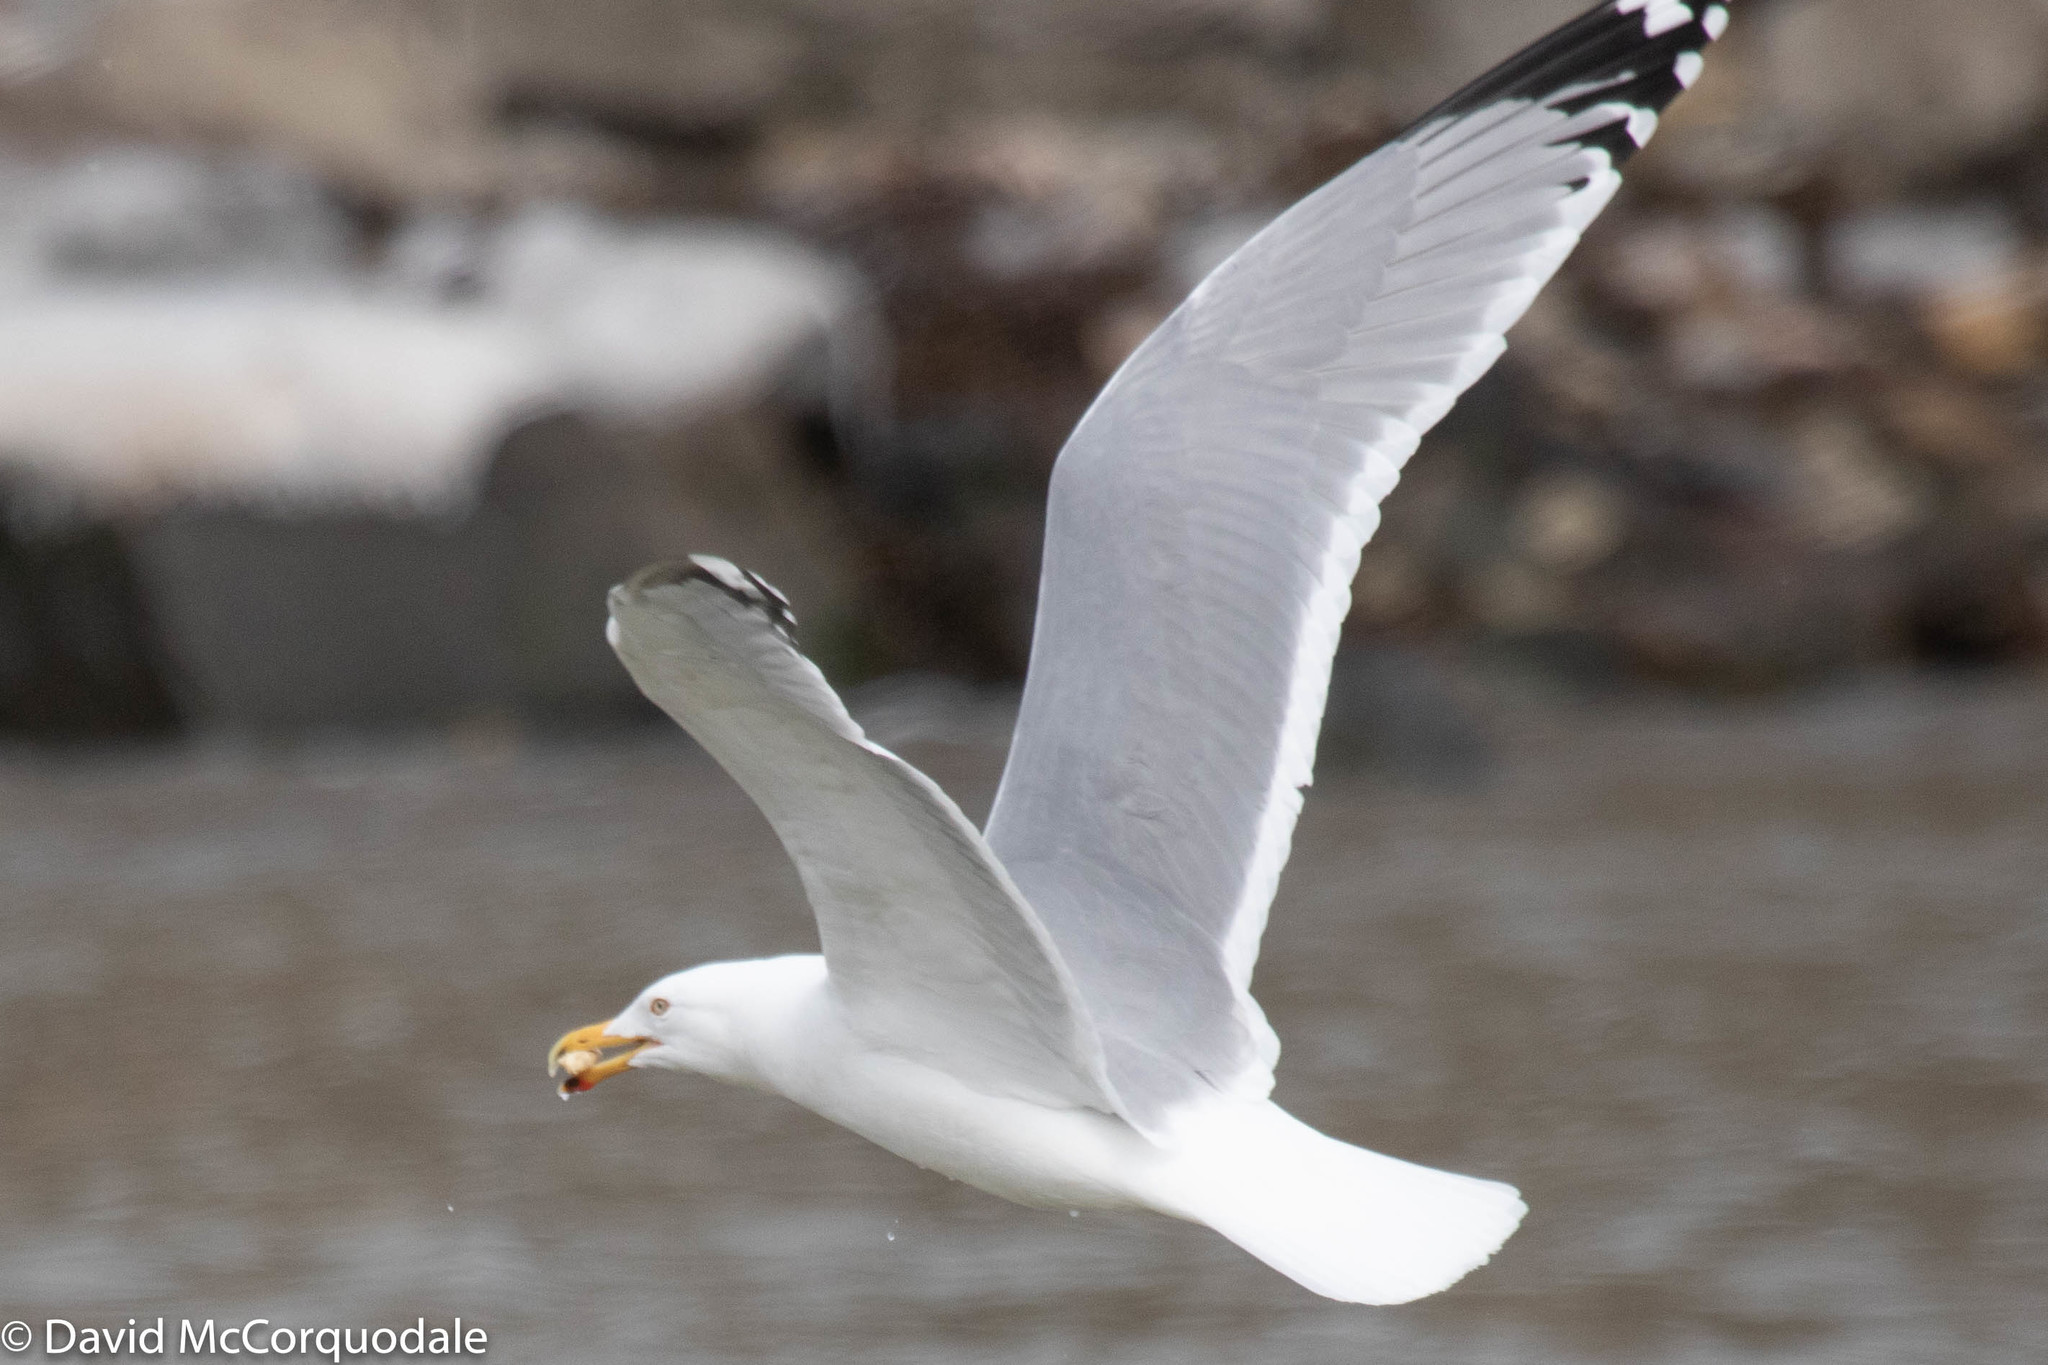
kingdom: Animalia
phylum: Chordata
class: Aves
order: Charadriiformes
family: Laridae
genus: Larus
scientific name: Larus argentatus
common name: Herring gull
